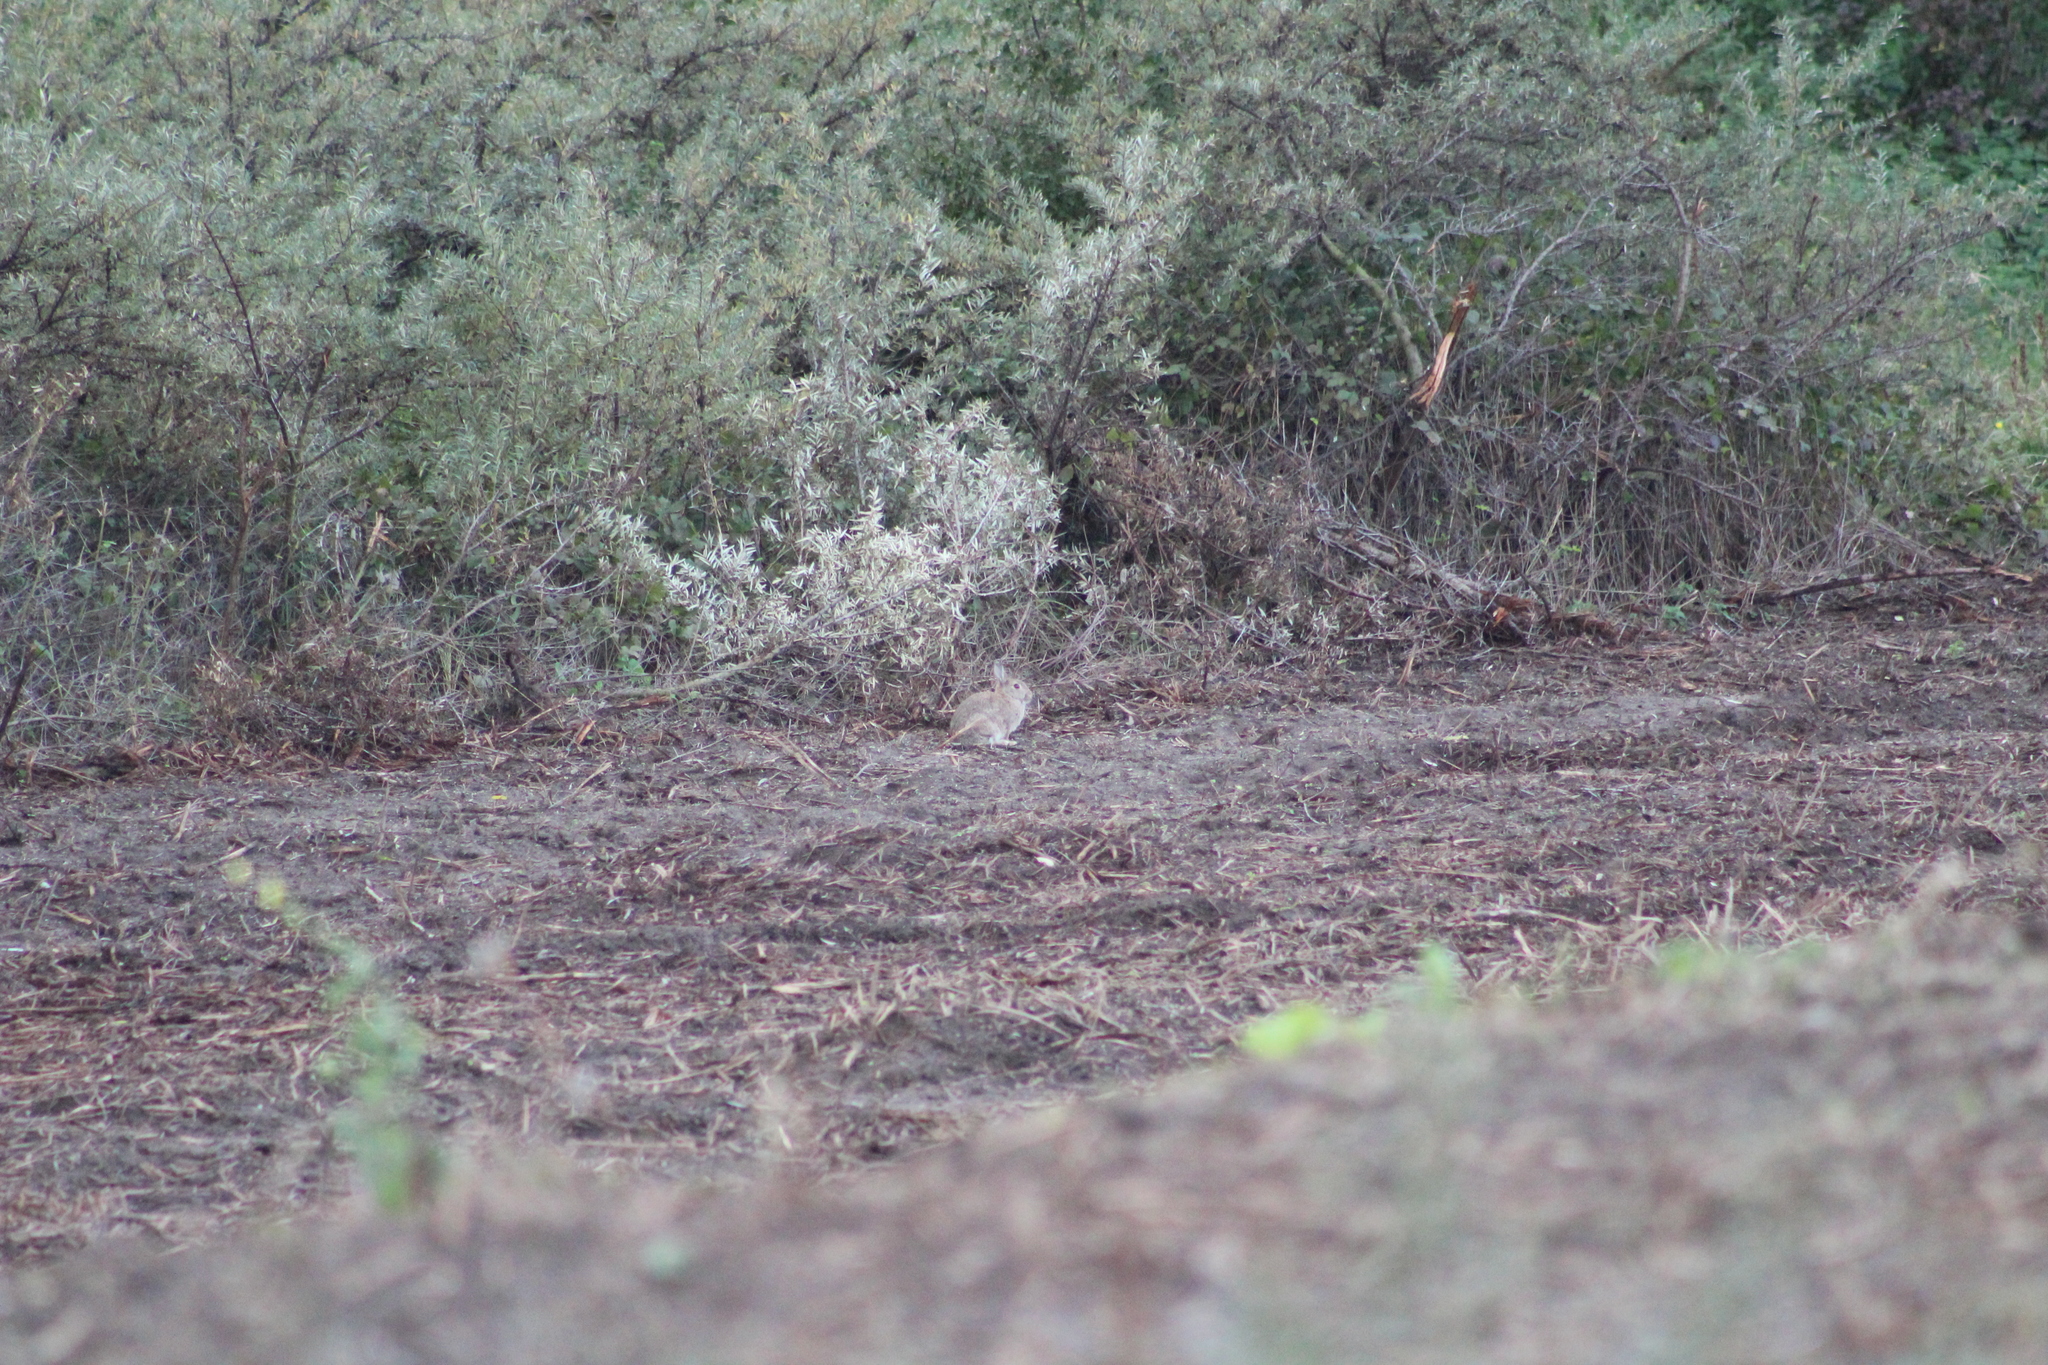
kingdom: Animalia
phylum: Chordata
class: Mammalia
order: Lagomorpha
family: Leporidae
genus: Oryctolagus
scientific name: Oryctolagus cuniculus
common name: European rabbit
